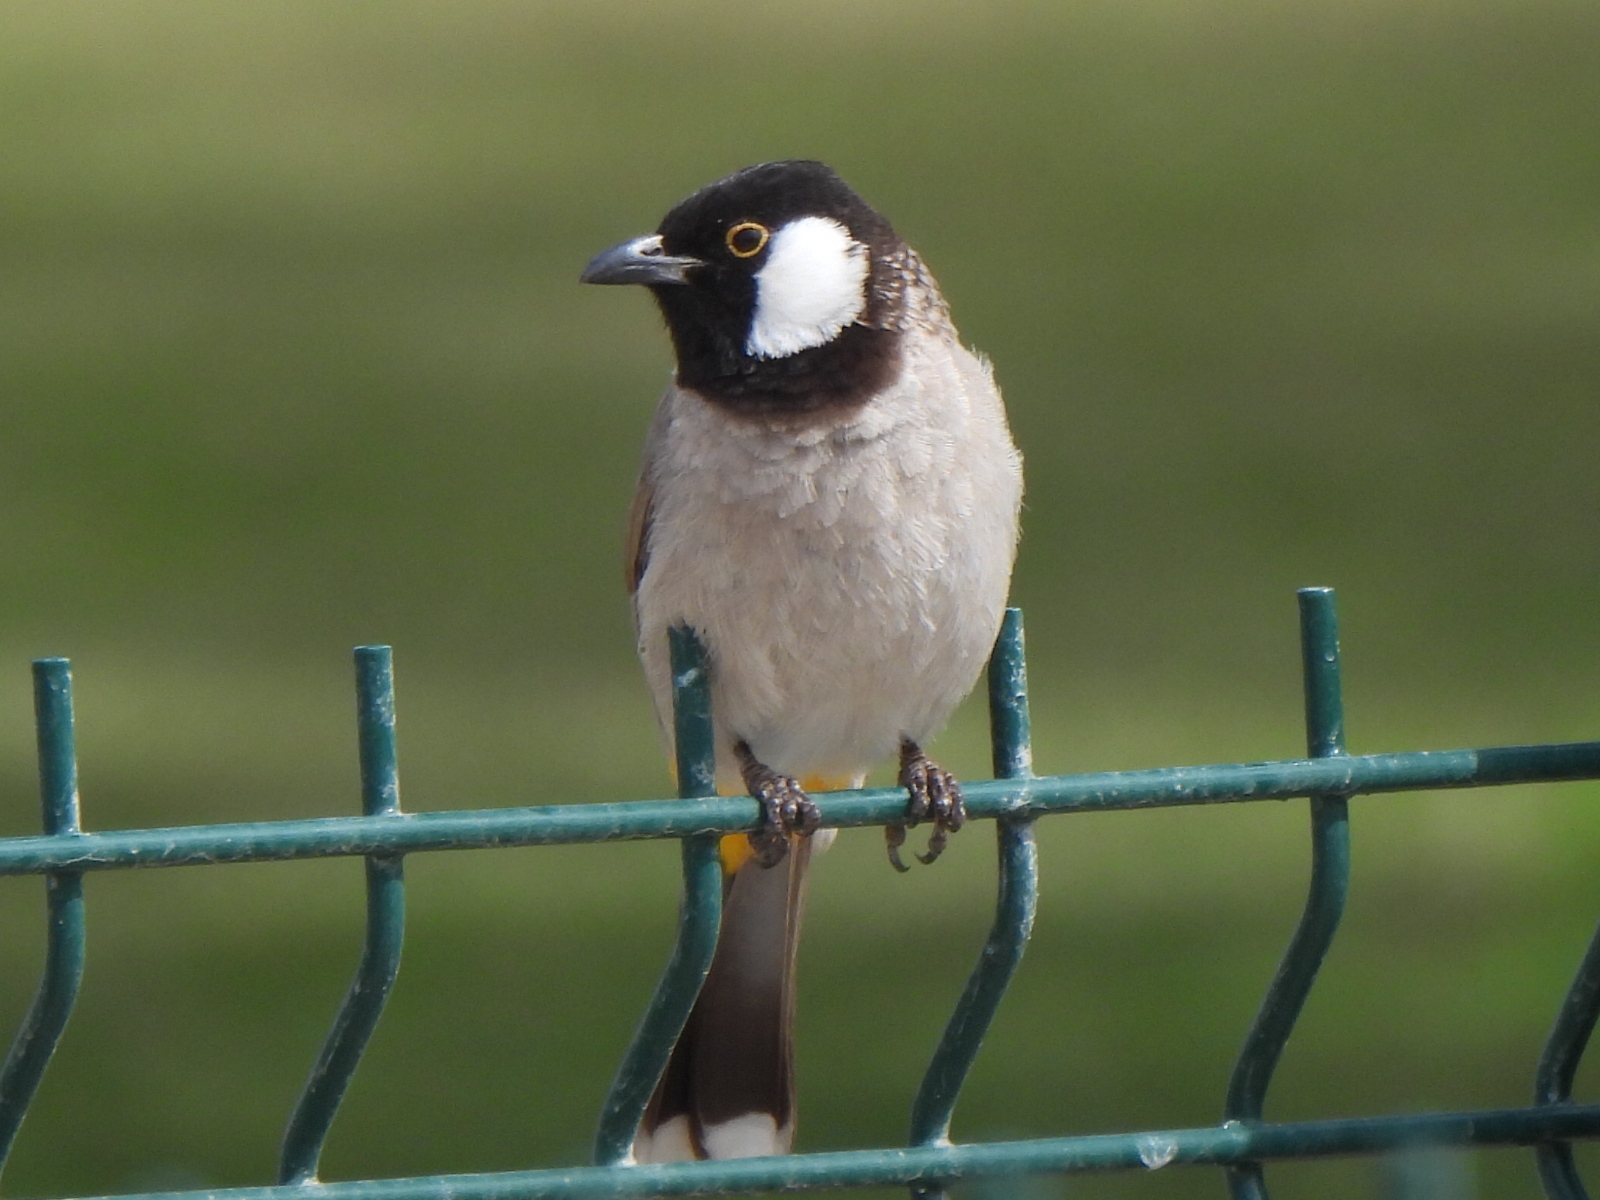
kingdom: Animalia
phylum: Chordata
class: Aves
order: Passeriformes
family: Pycnonotidae
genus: Pycnonotus
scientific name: Pycnonotus leucotis
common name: White-eared bulbul
